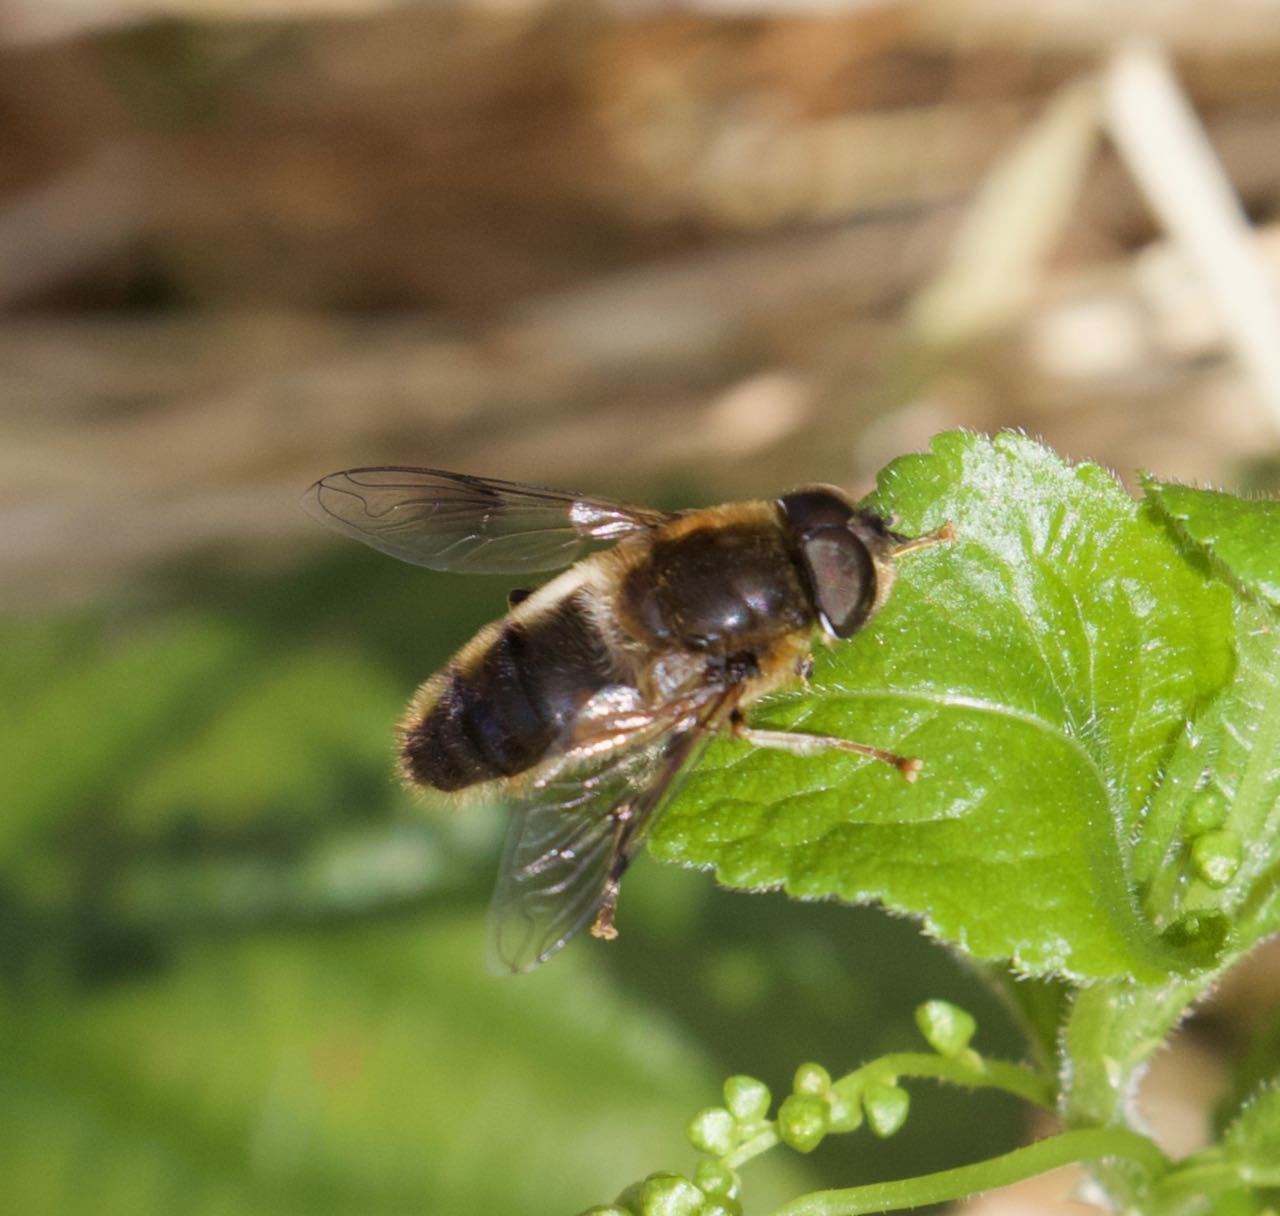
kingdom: Animalia
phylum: Arthropoda
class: Insecta
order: Diptera
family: Syrphidae
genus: Eristalis
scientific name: Eristalis pertinax
